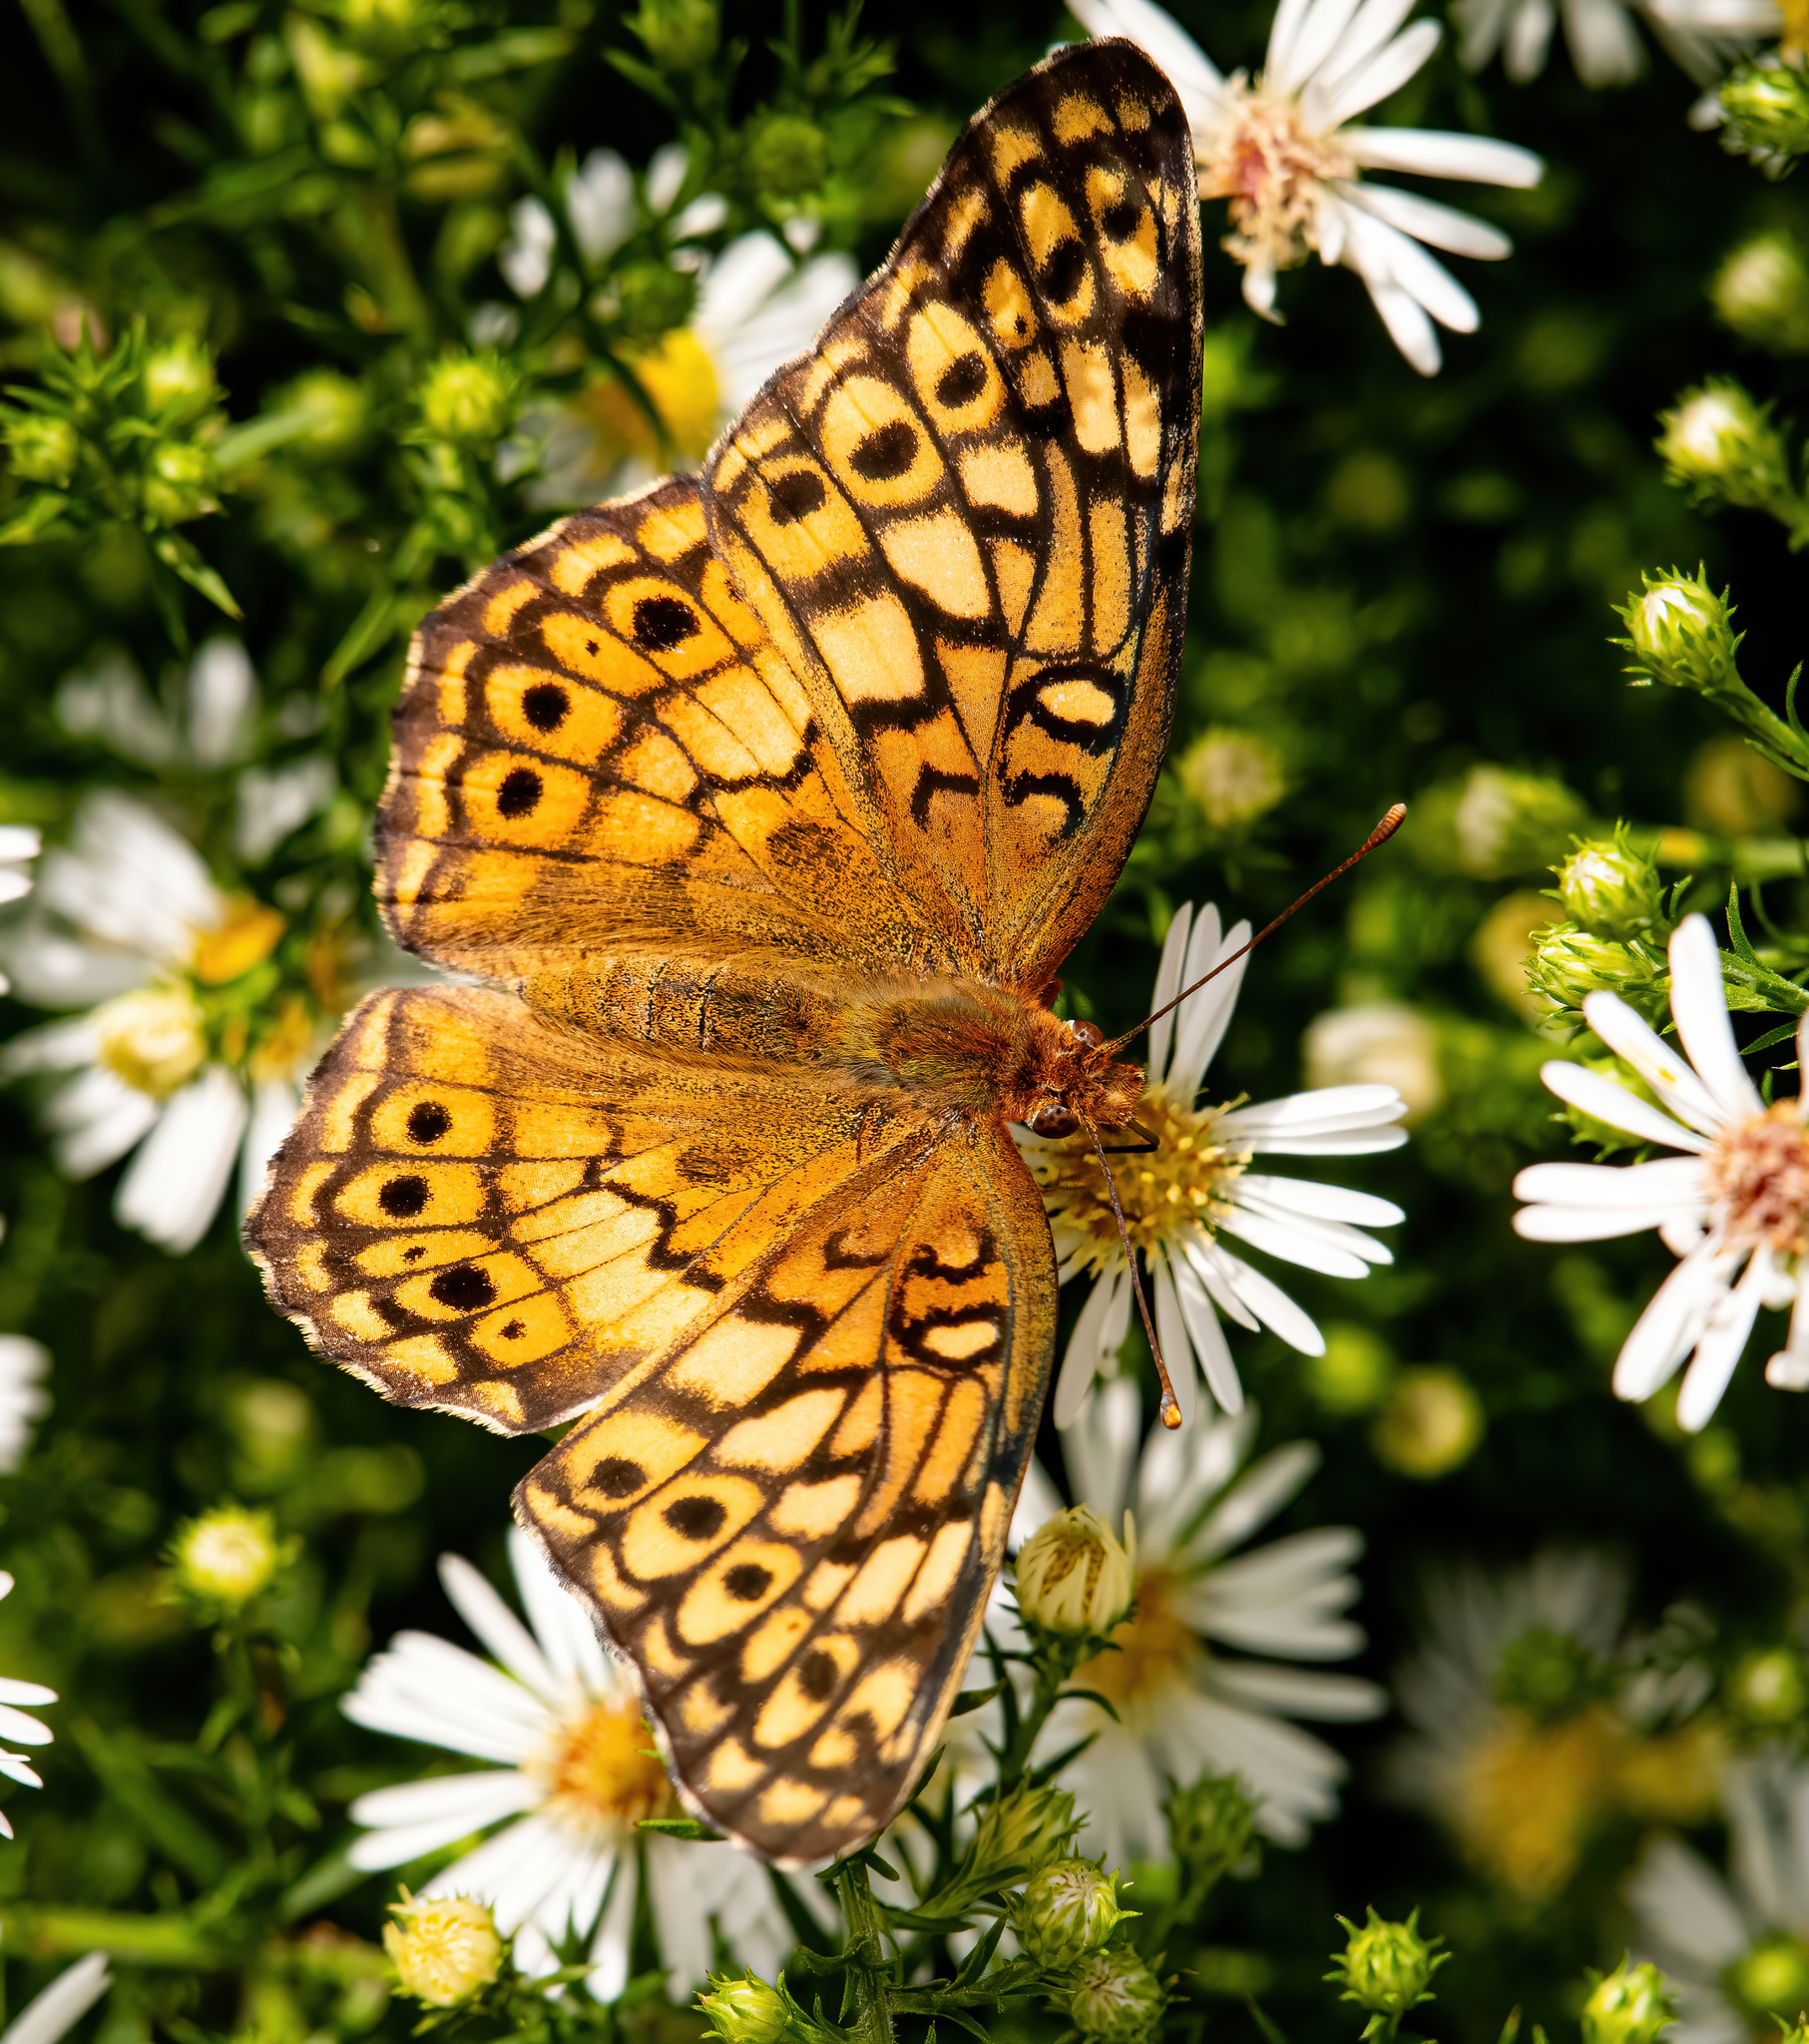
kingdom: Animalia
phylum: Arthropoda
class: Insecta
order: Lepidoptera
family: Nymphalidae
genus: Euptoieta
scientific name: Euptoieta claudia
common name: Variegated fritillary
